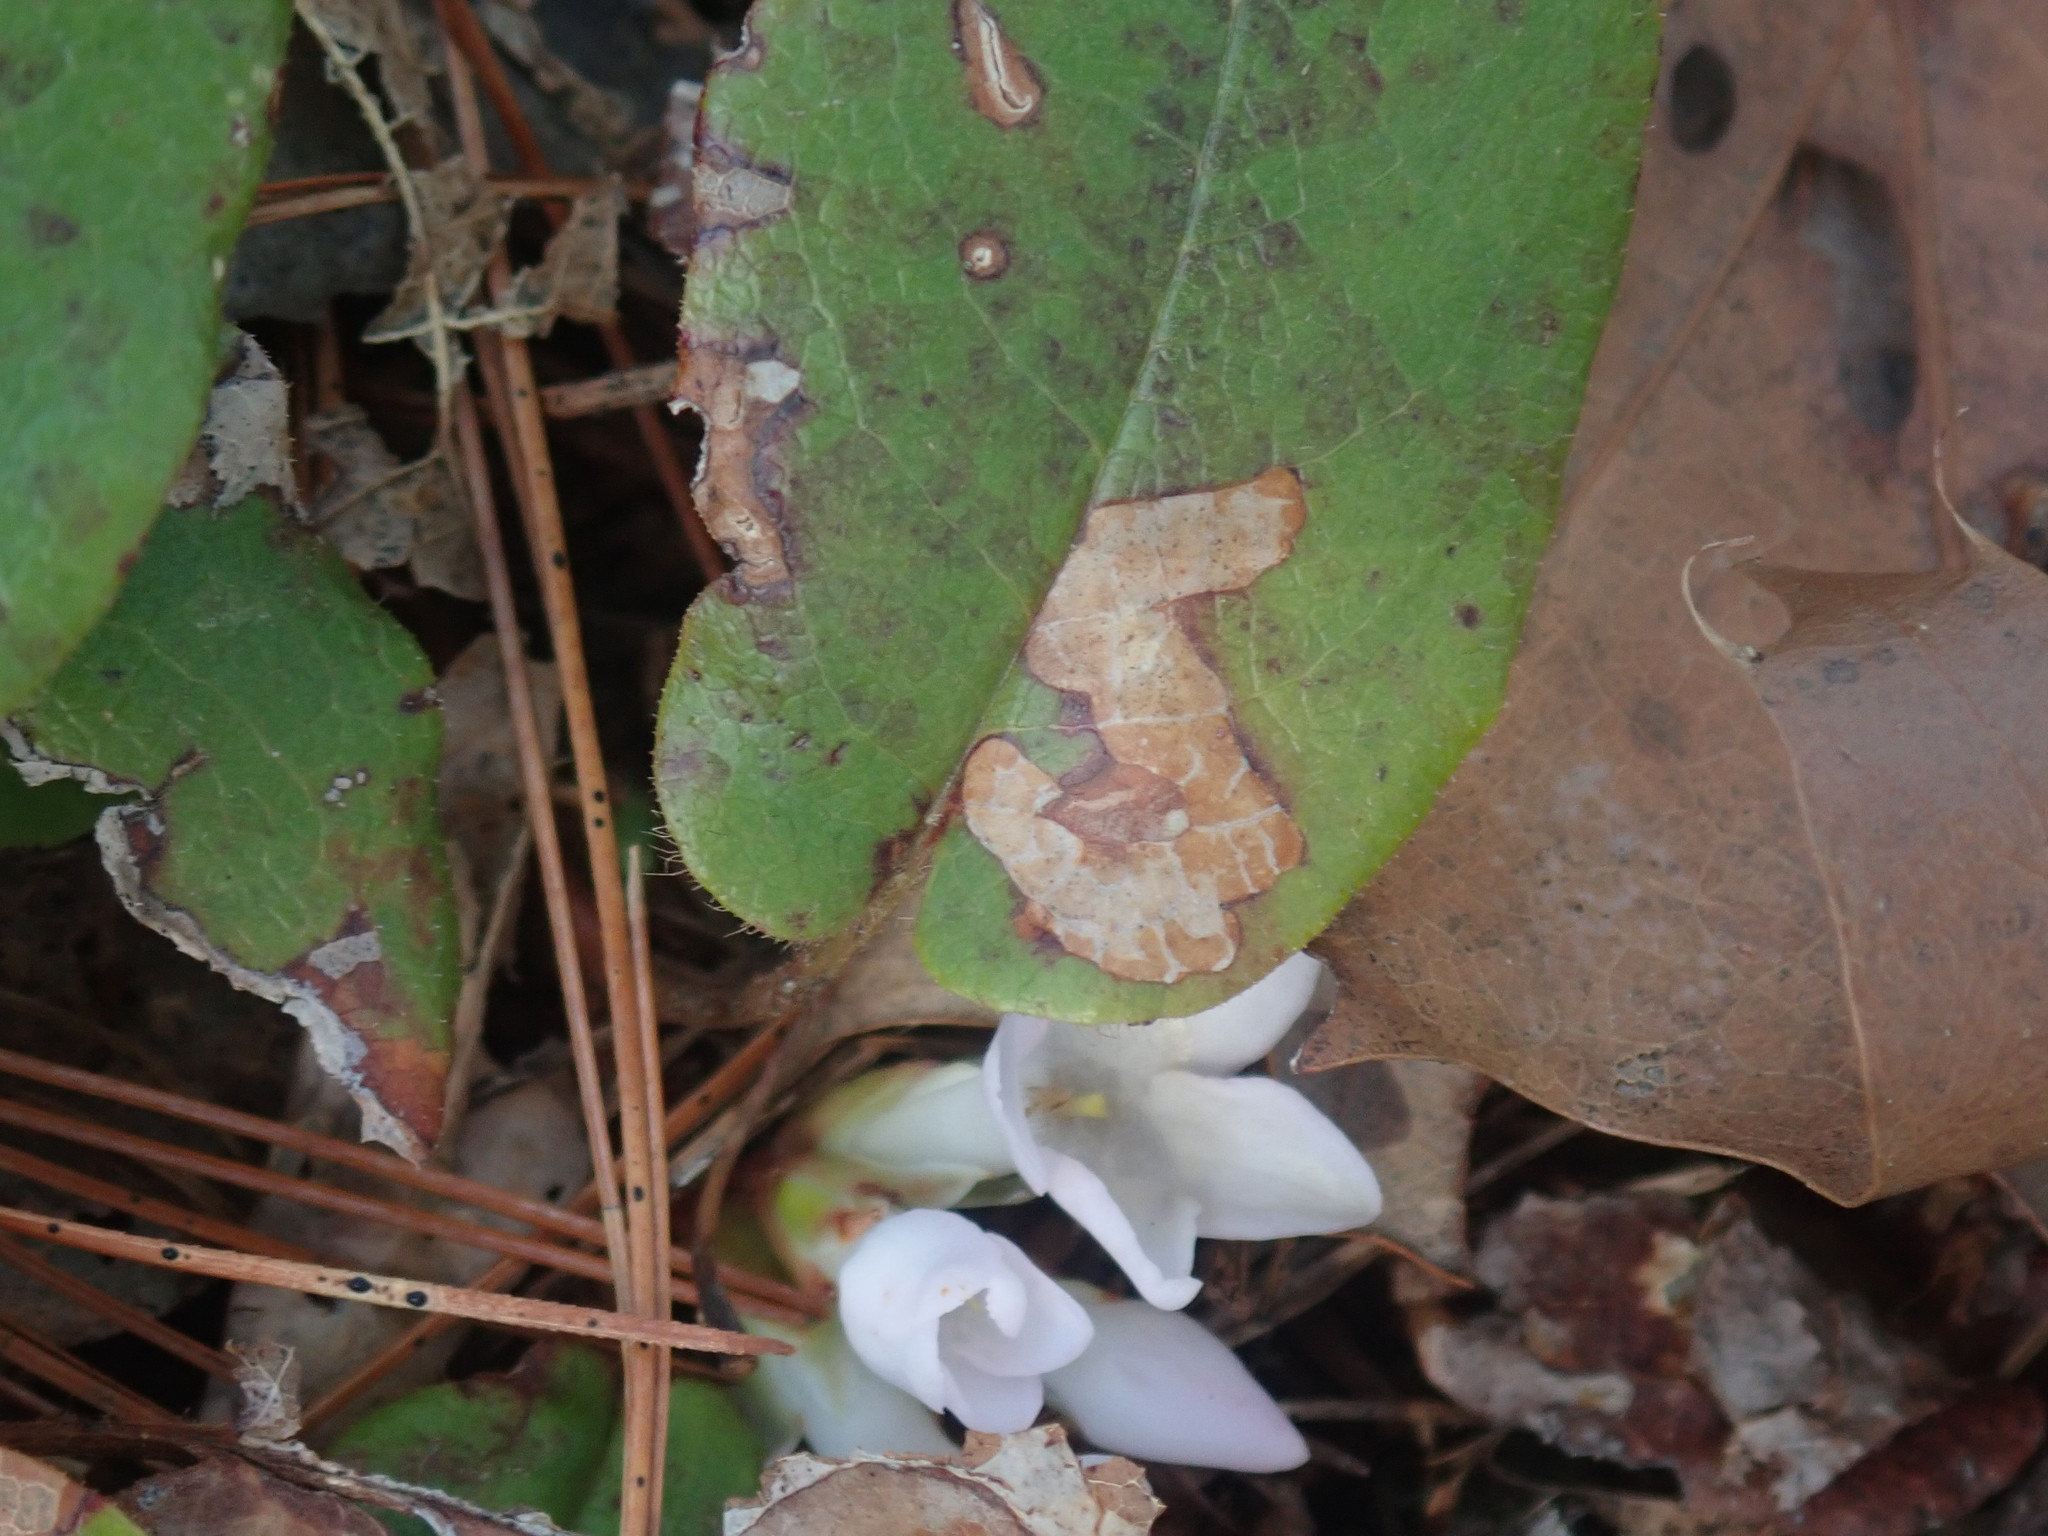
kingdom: Animalia
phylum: Arthropoda
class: Insecta
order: Coleoptera
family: Buprestidae
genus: Brachys
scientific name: Brachys
